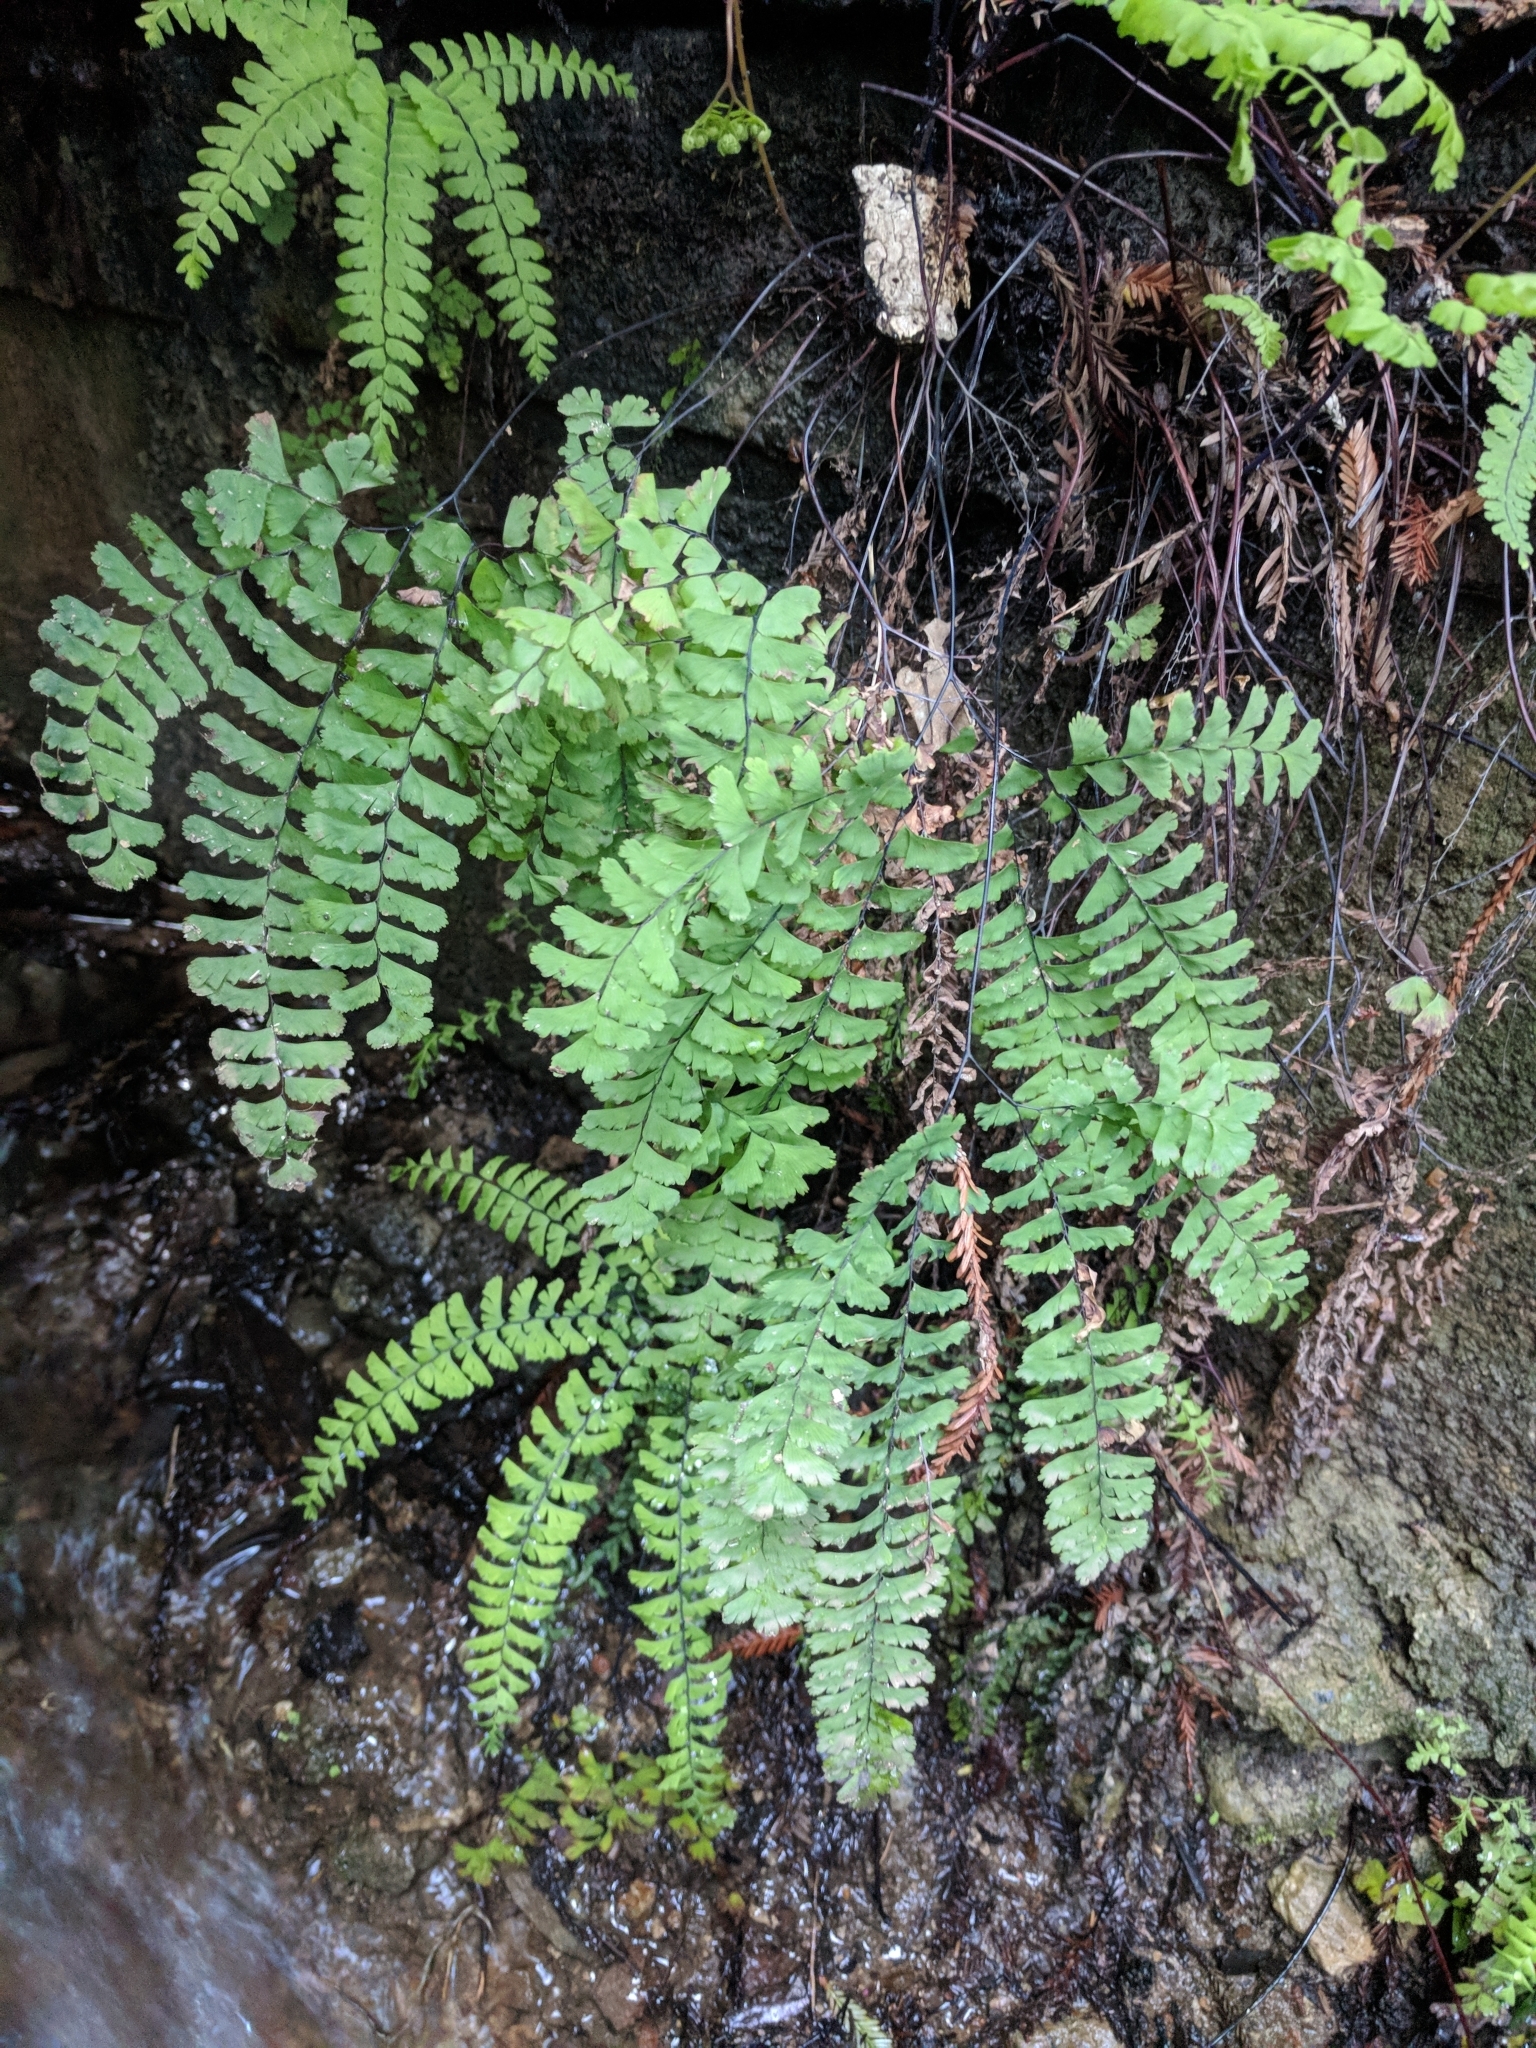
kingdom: Plantae
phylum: Tracheophyta
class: Polypodiopsida
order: Polypodiales
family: Pteridaceae
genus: Adiantum
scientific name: Adiantum aleuticum
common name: Aleutian maidenhair fern
